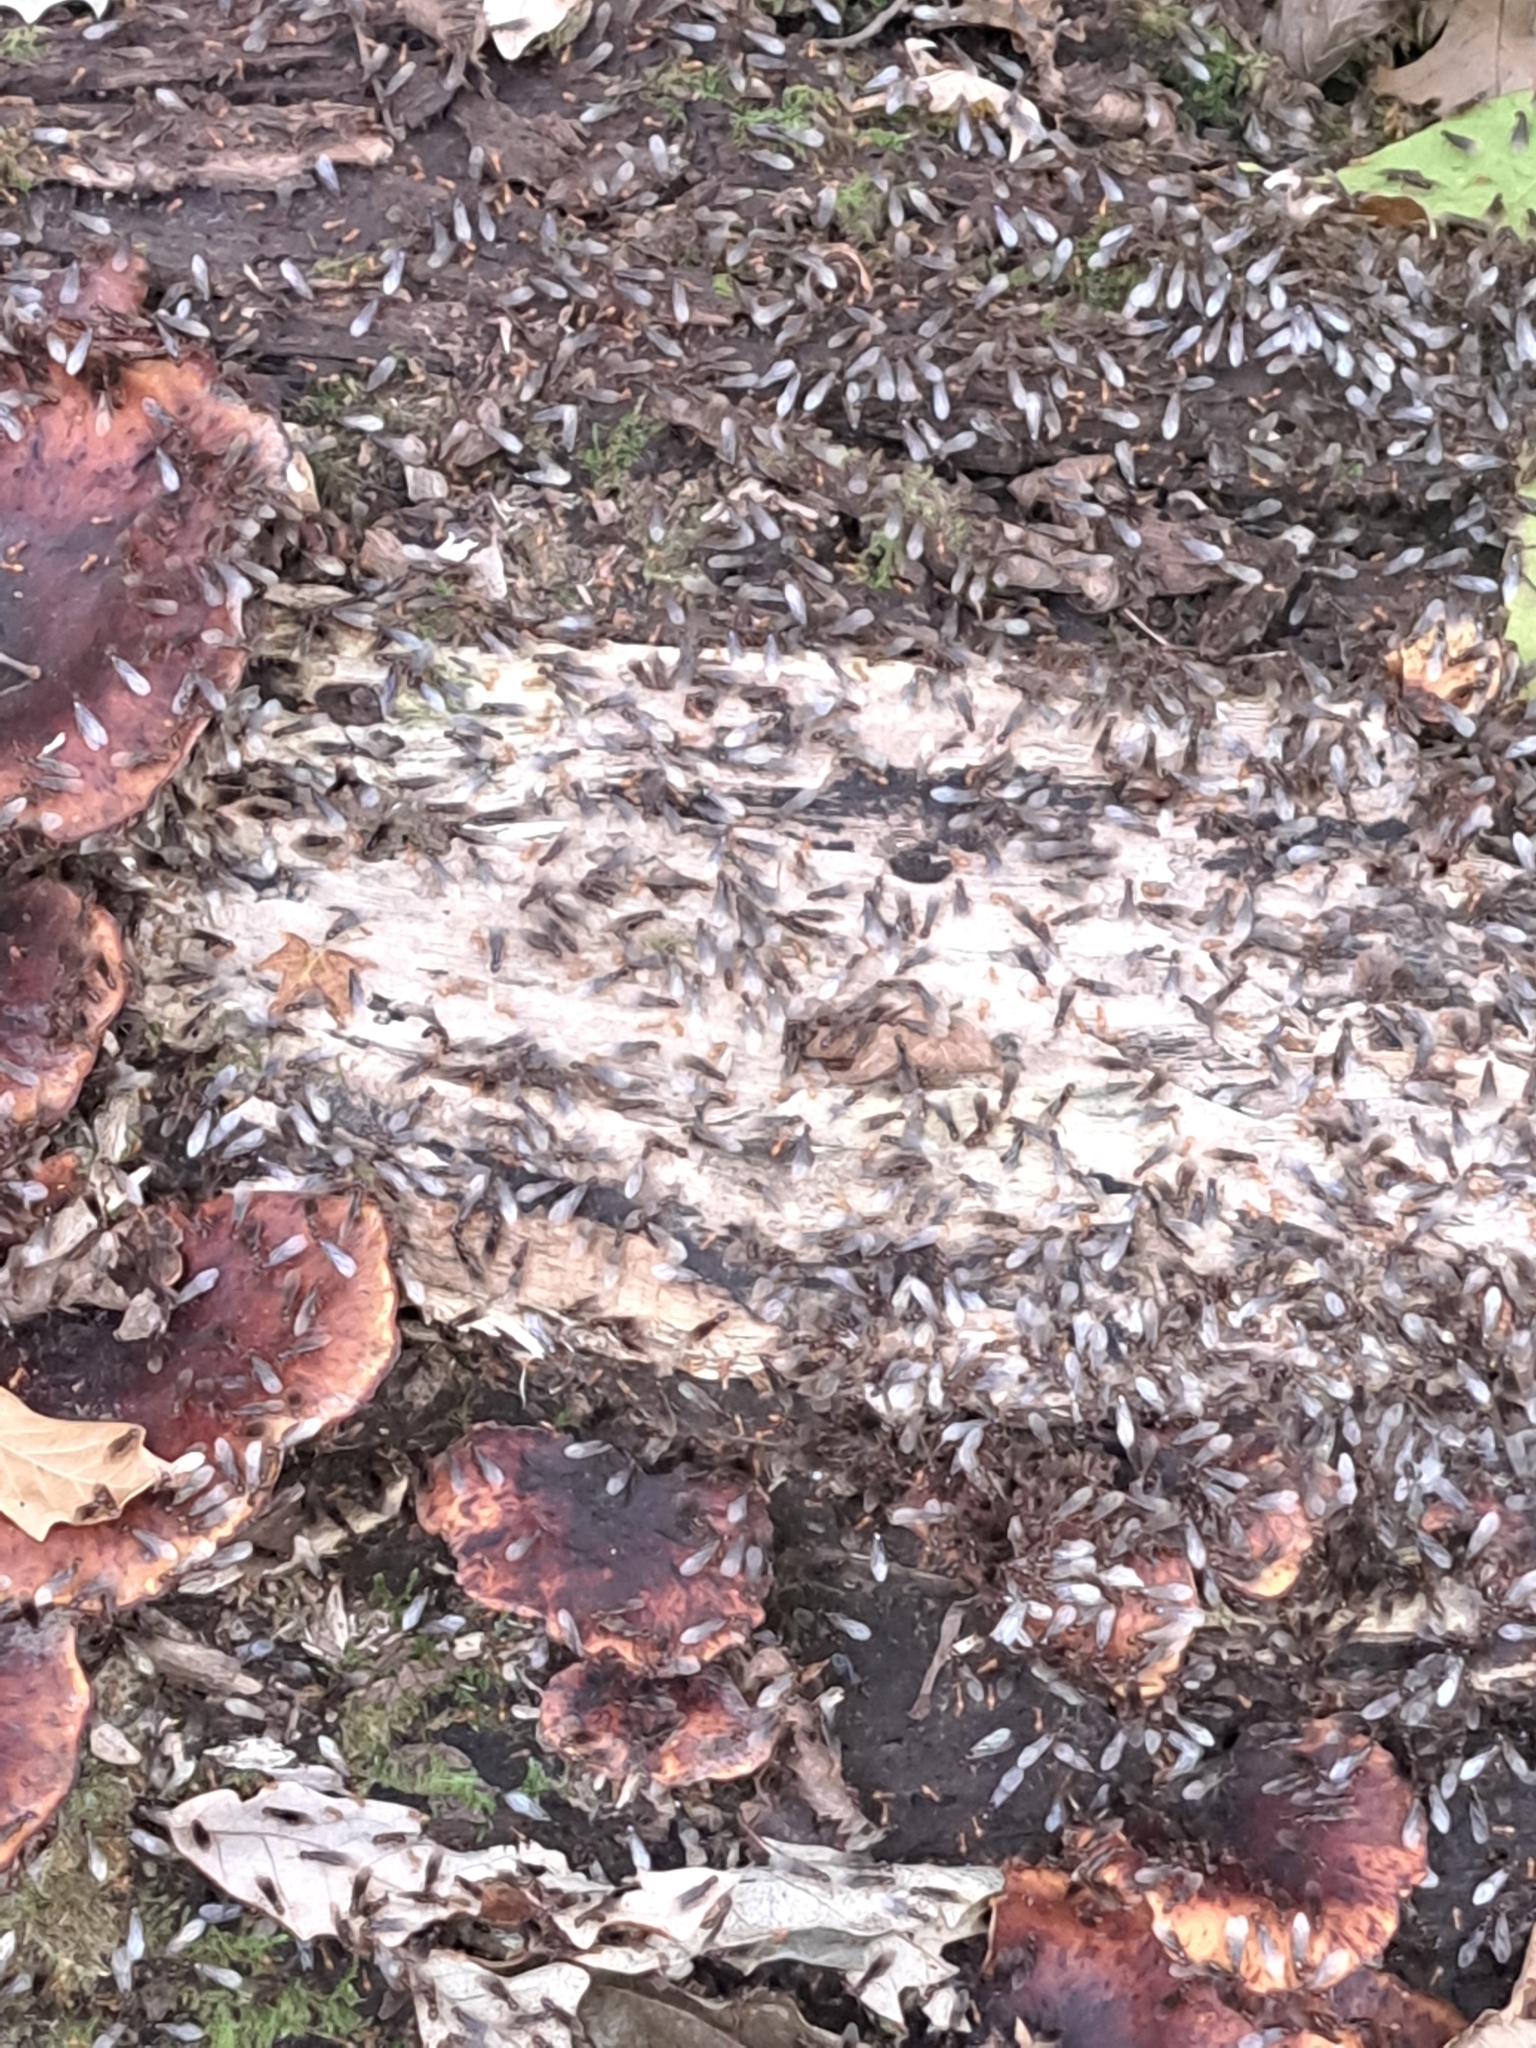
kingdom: Animalia
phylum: Arthropoda
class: Insecta
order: Hymenoptera
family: Formicidae
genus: Lasius
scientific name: Lasius claviger
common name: Common citronella ant
